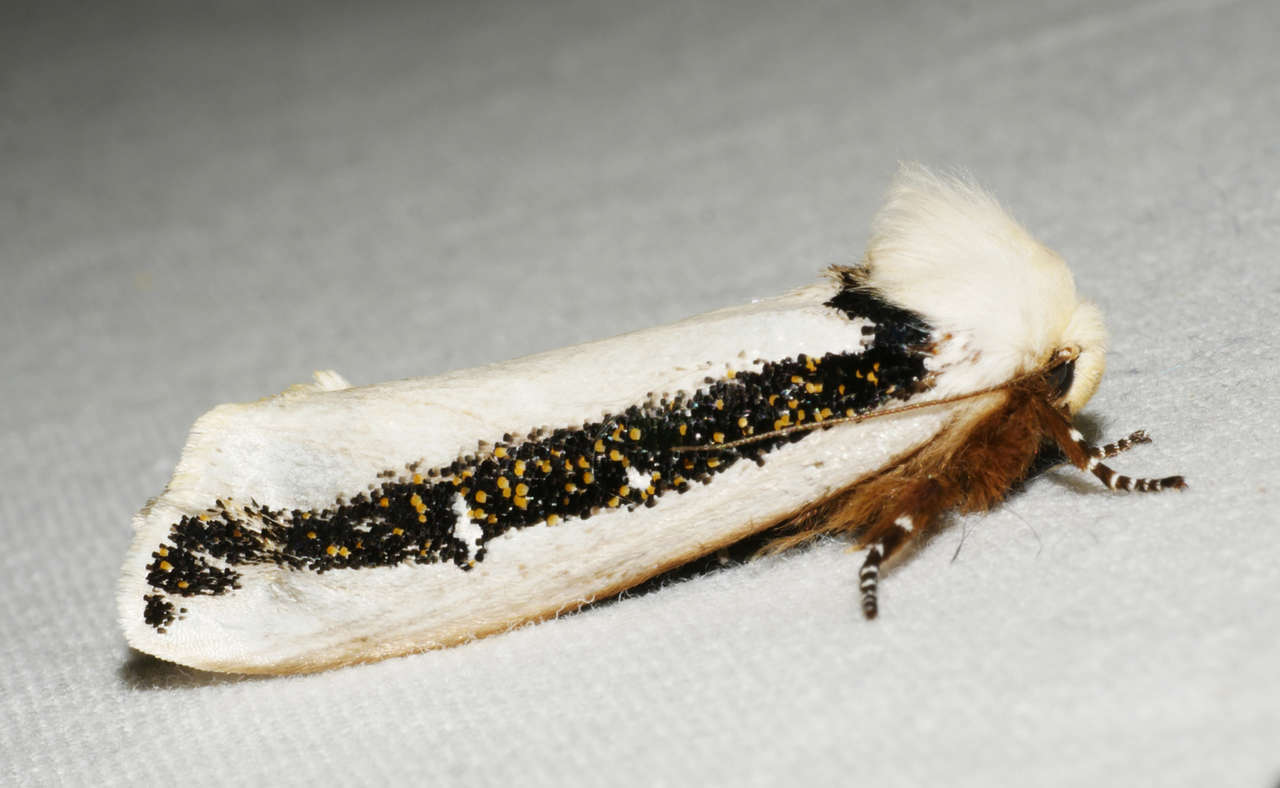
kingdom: Animalia
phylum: Arthropoda
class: Insecta
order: Lepidoptera
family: Oenosandridae
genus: Oenosandra
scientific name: Oenosandra boisduvalii
